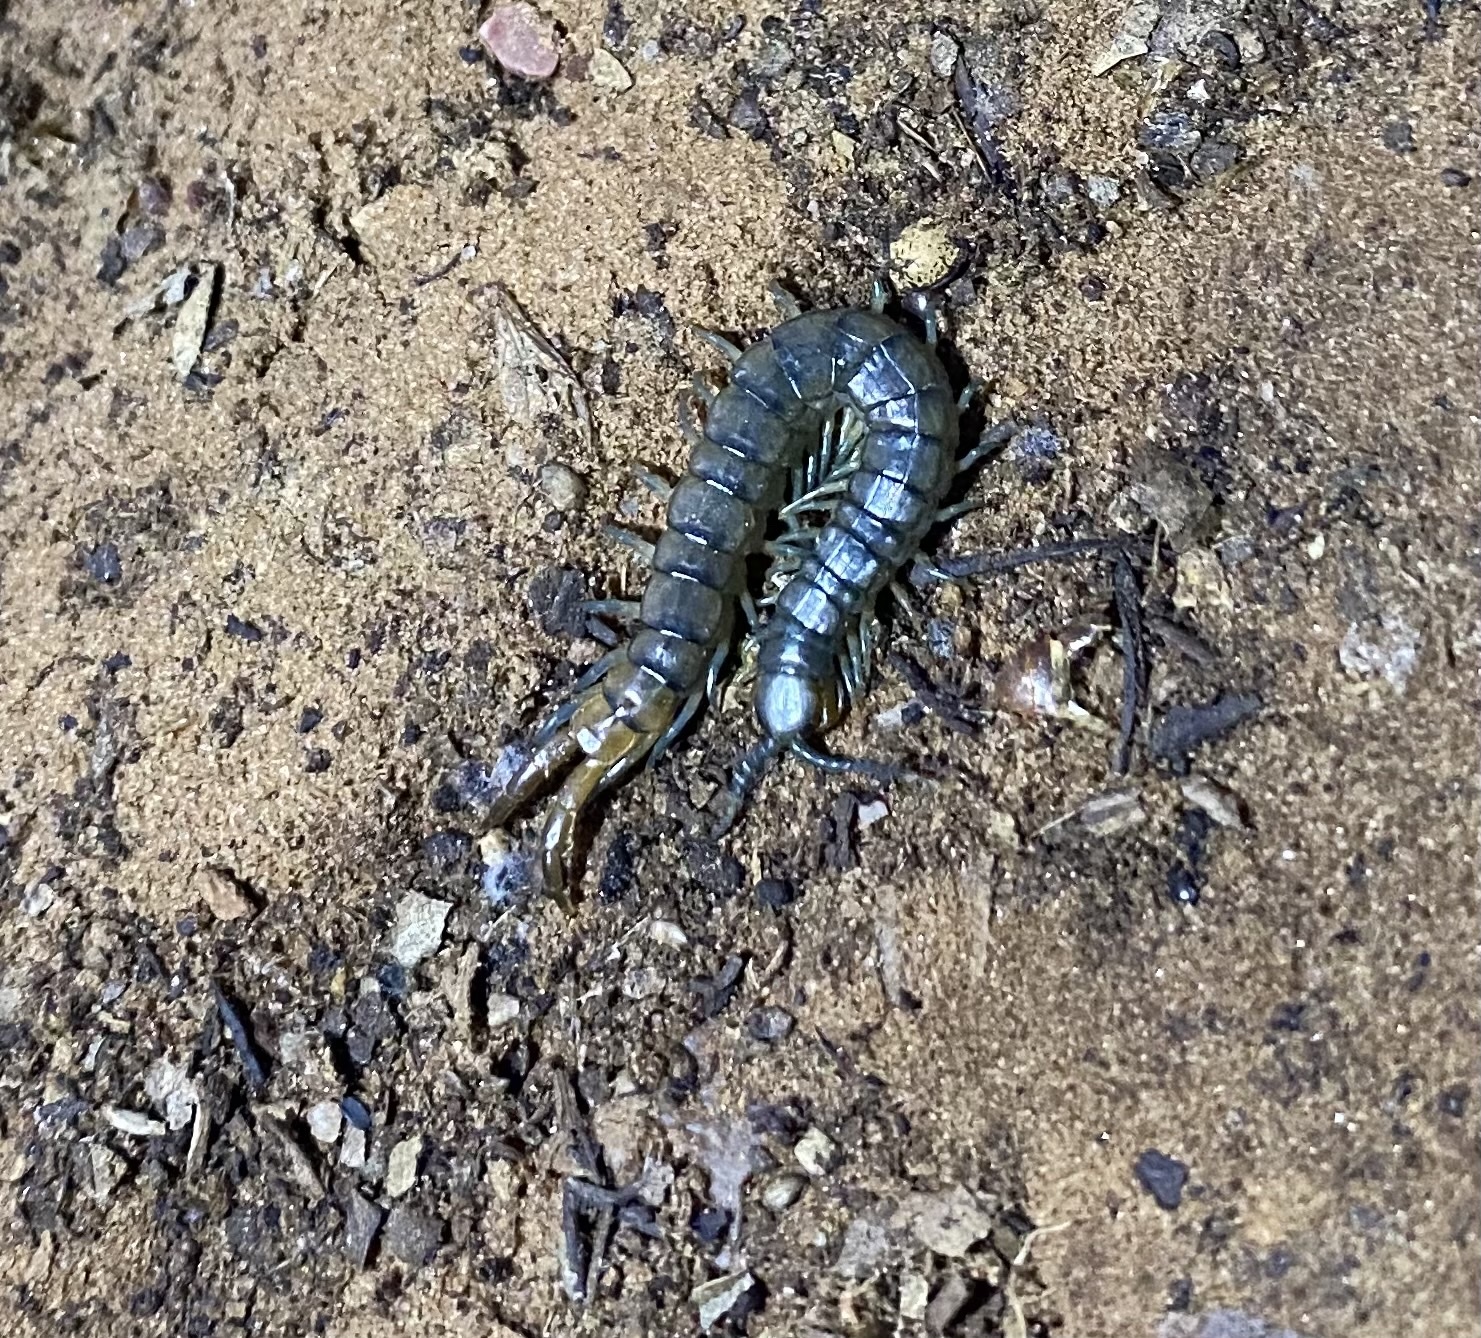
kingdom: Animalia
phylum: Arthropoda
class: Chilopoda
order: Scolopendromorpha
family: Scolopendridae
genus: Scolopendra
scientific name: Scolopendra viridis
